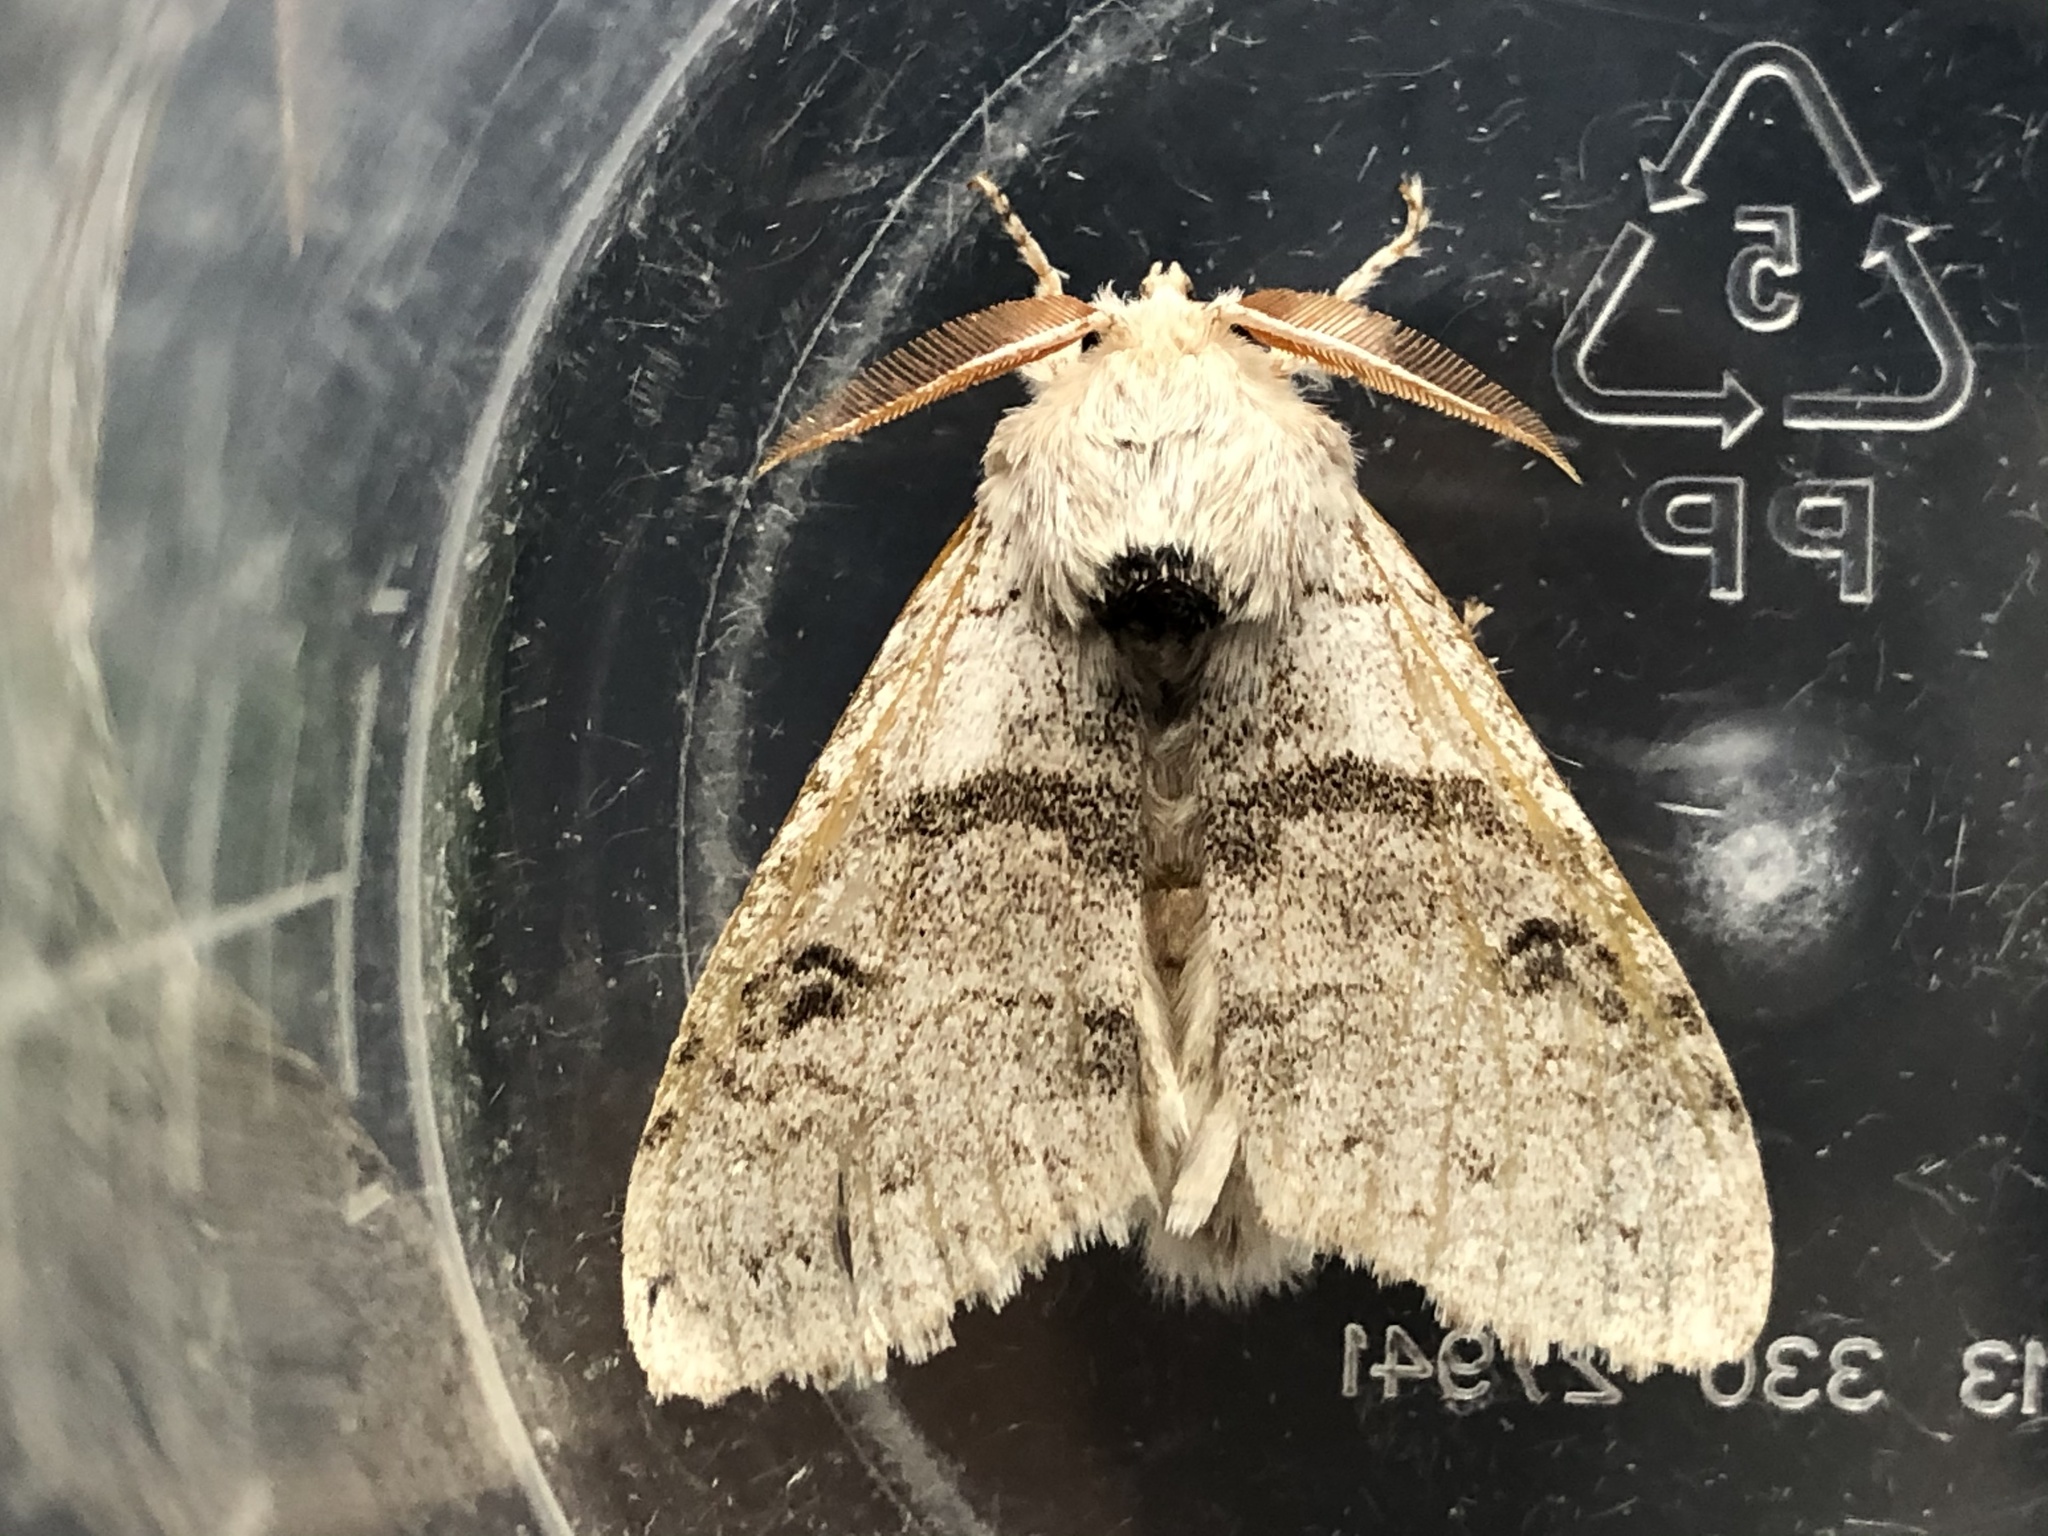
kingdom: Animalia
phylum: Arthropoda
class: Insecta
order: Lepidoptera
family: Erebidae
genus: Calliteara
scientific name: Calliteara pudibunda
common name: Pale tussock
